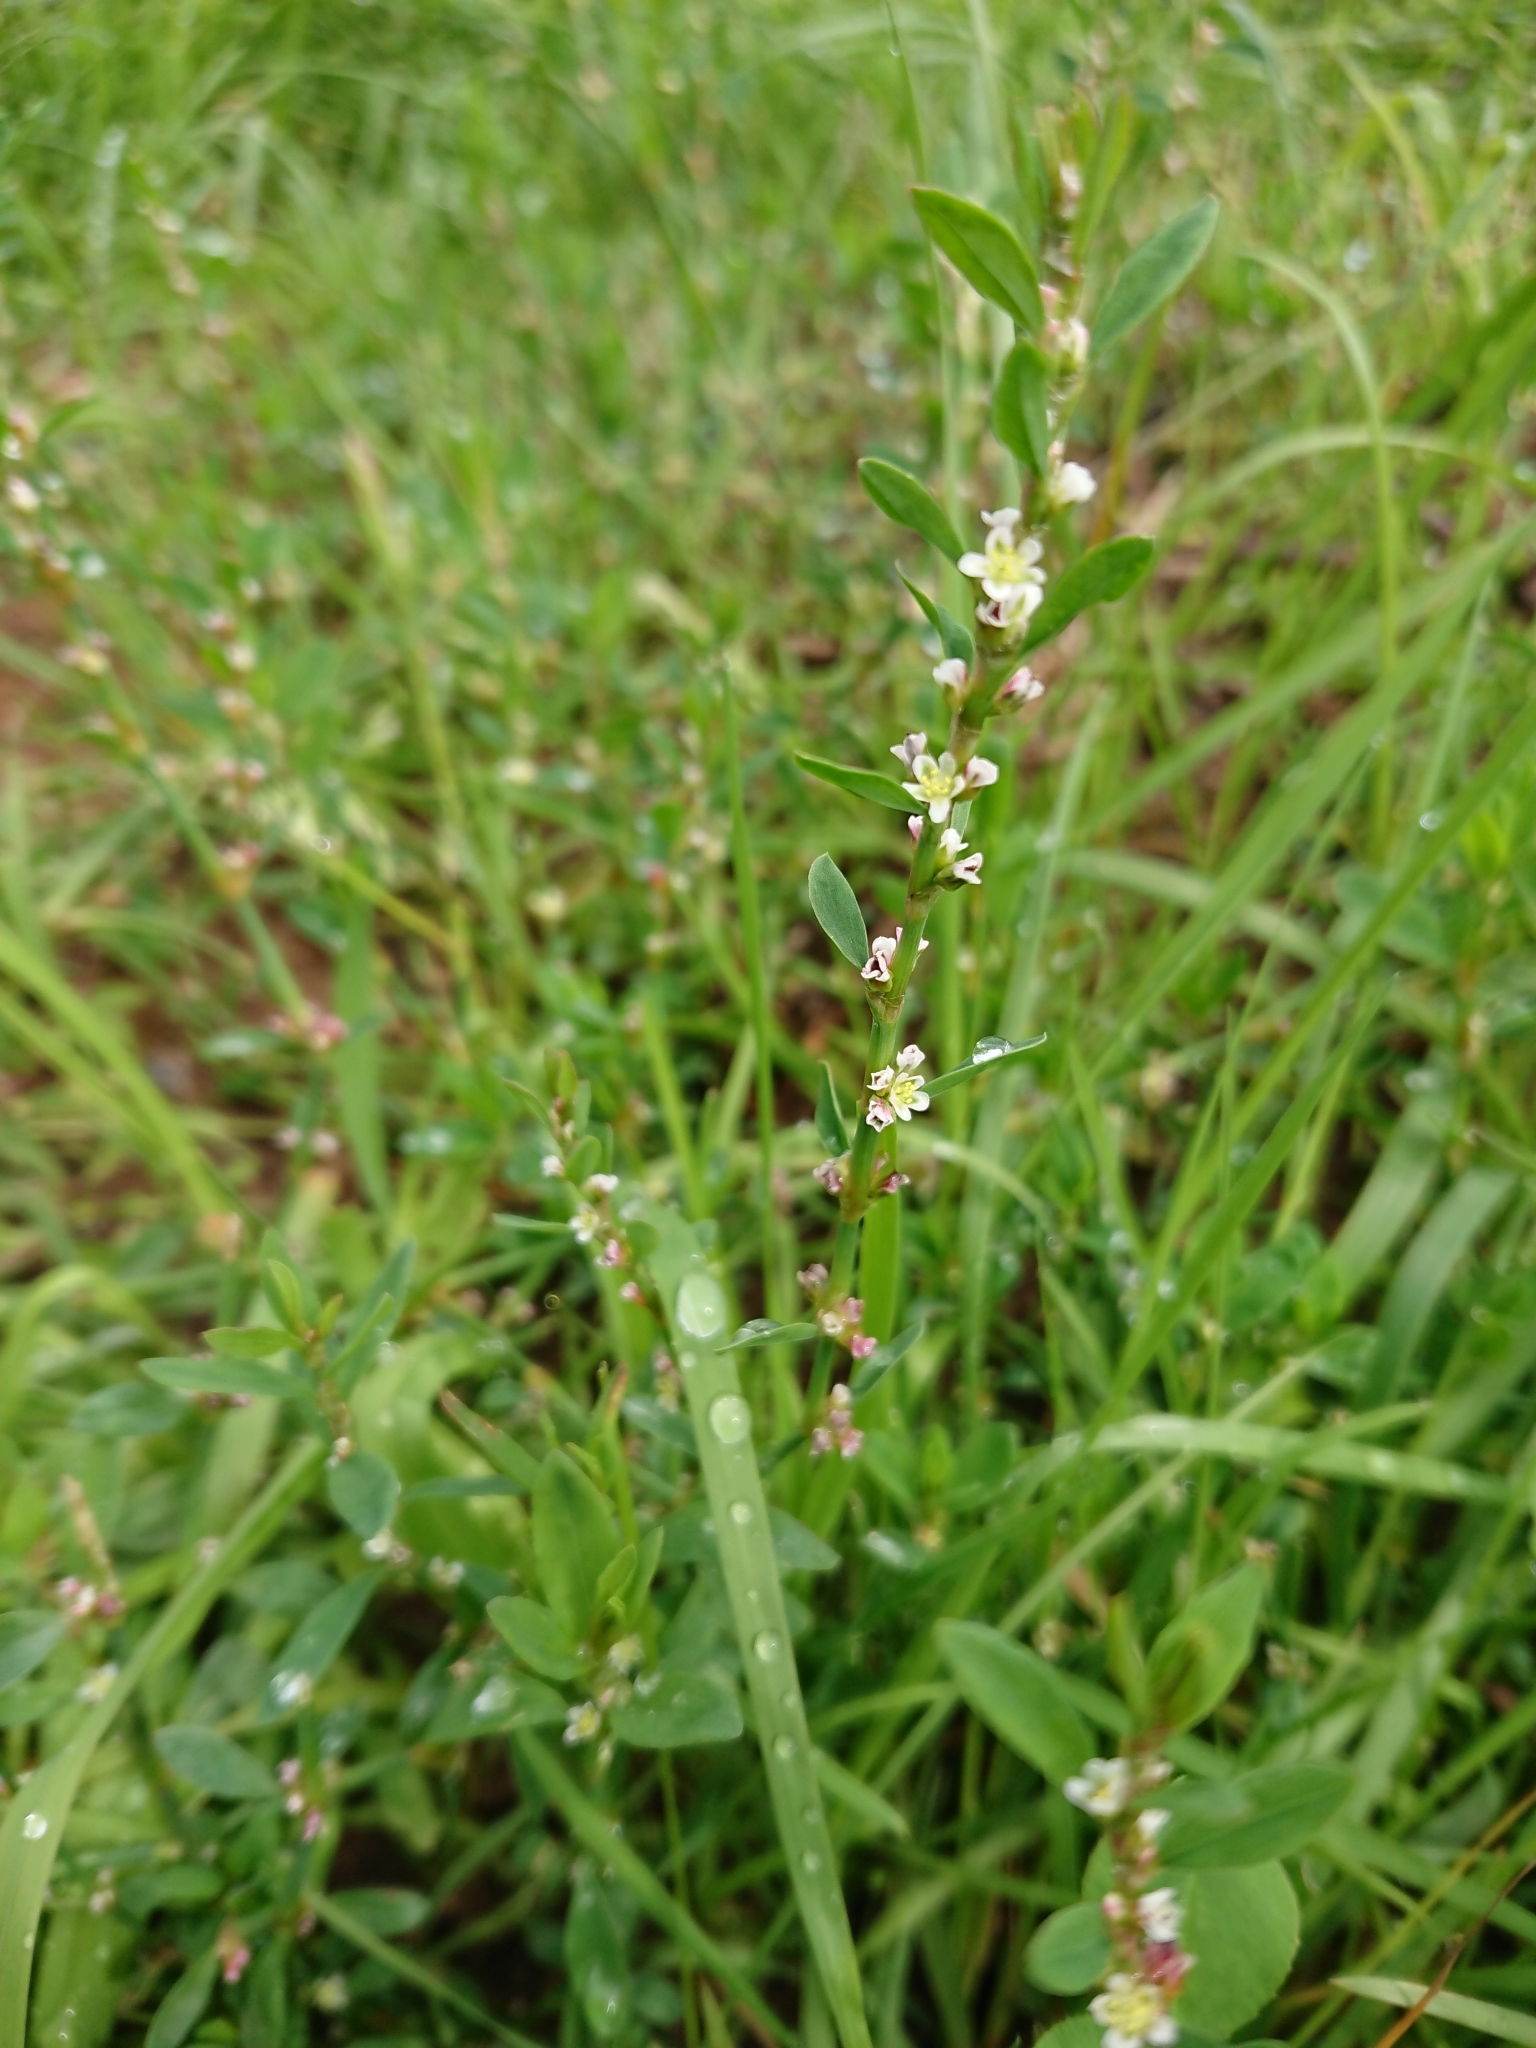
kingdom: Plantae
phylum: Tracheophyta
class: Magnoliopsida
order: Caryophyllales
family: Polygonaceae
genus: Polygonum
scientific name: Polygonum
